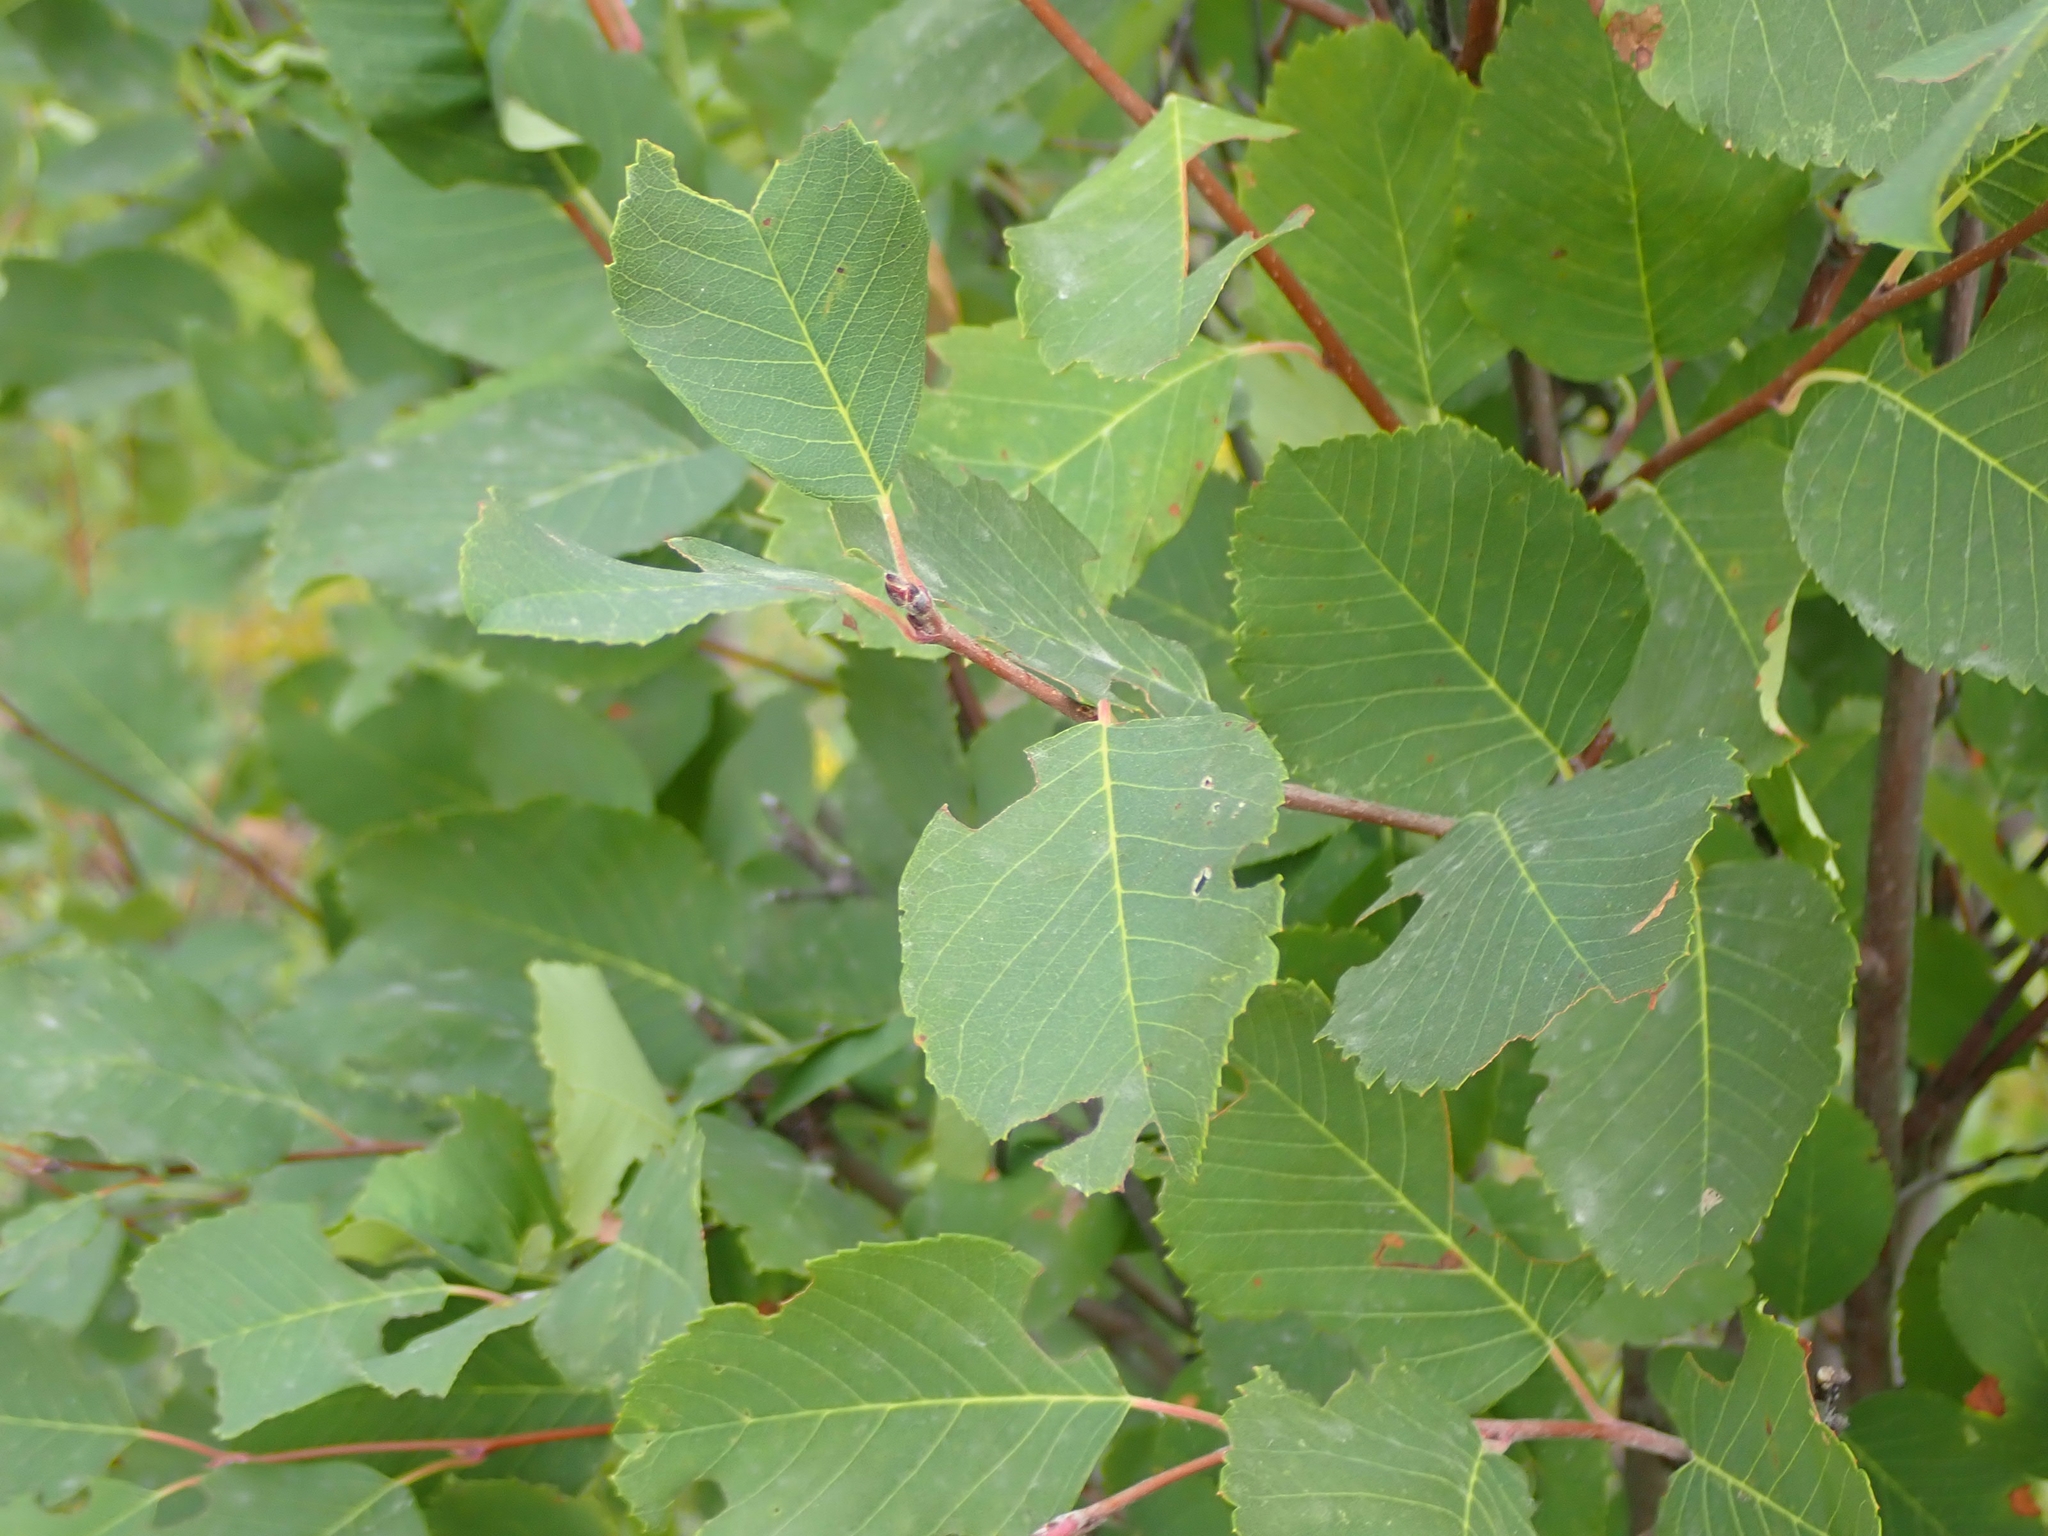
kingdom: Plantae
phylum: Tracheophyta
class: Magnoliopsida
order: Rosales
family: Rosaceae
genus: Amelanchier
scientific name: Amelanchier alnifolia
